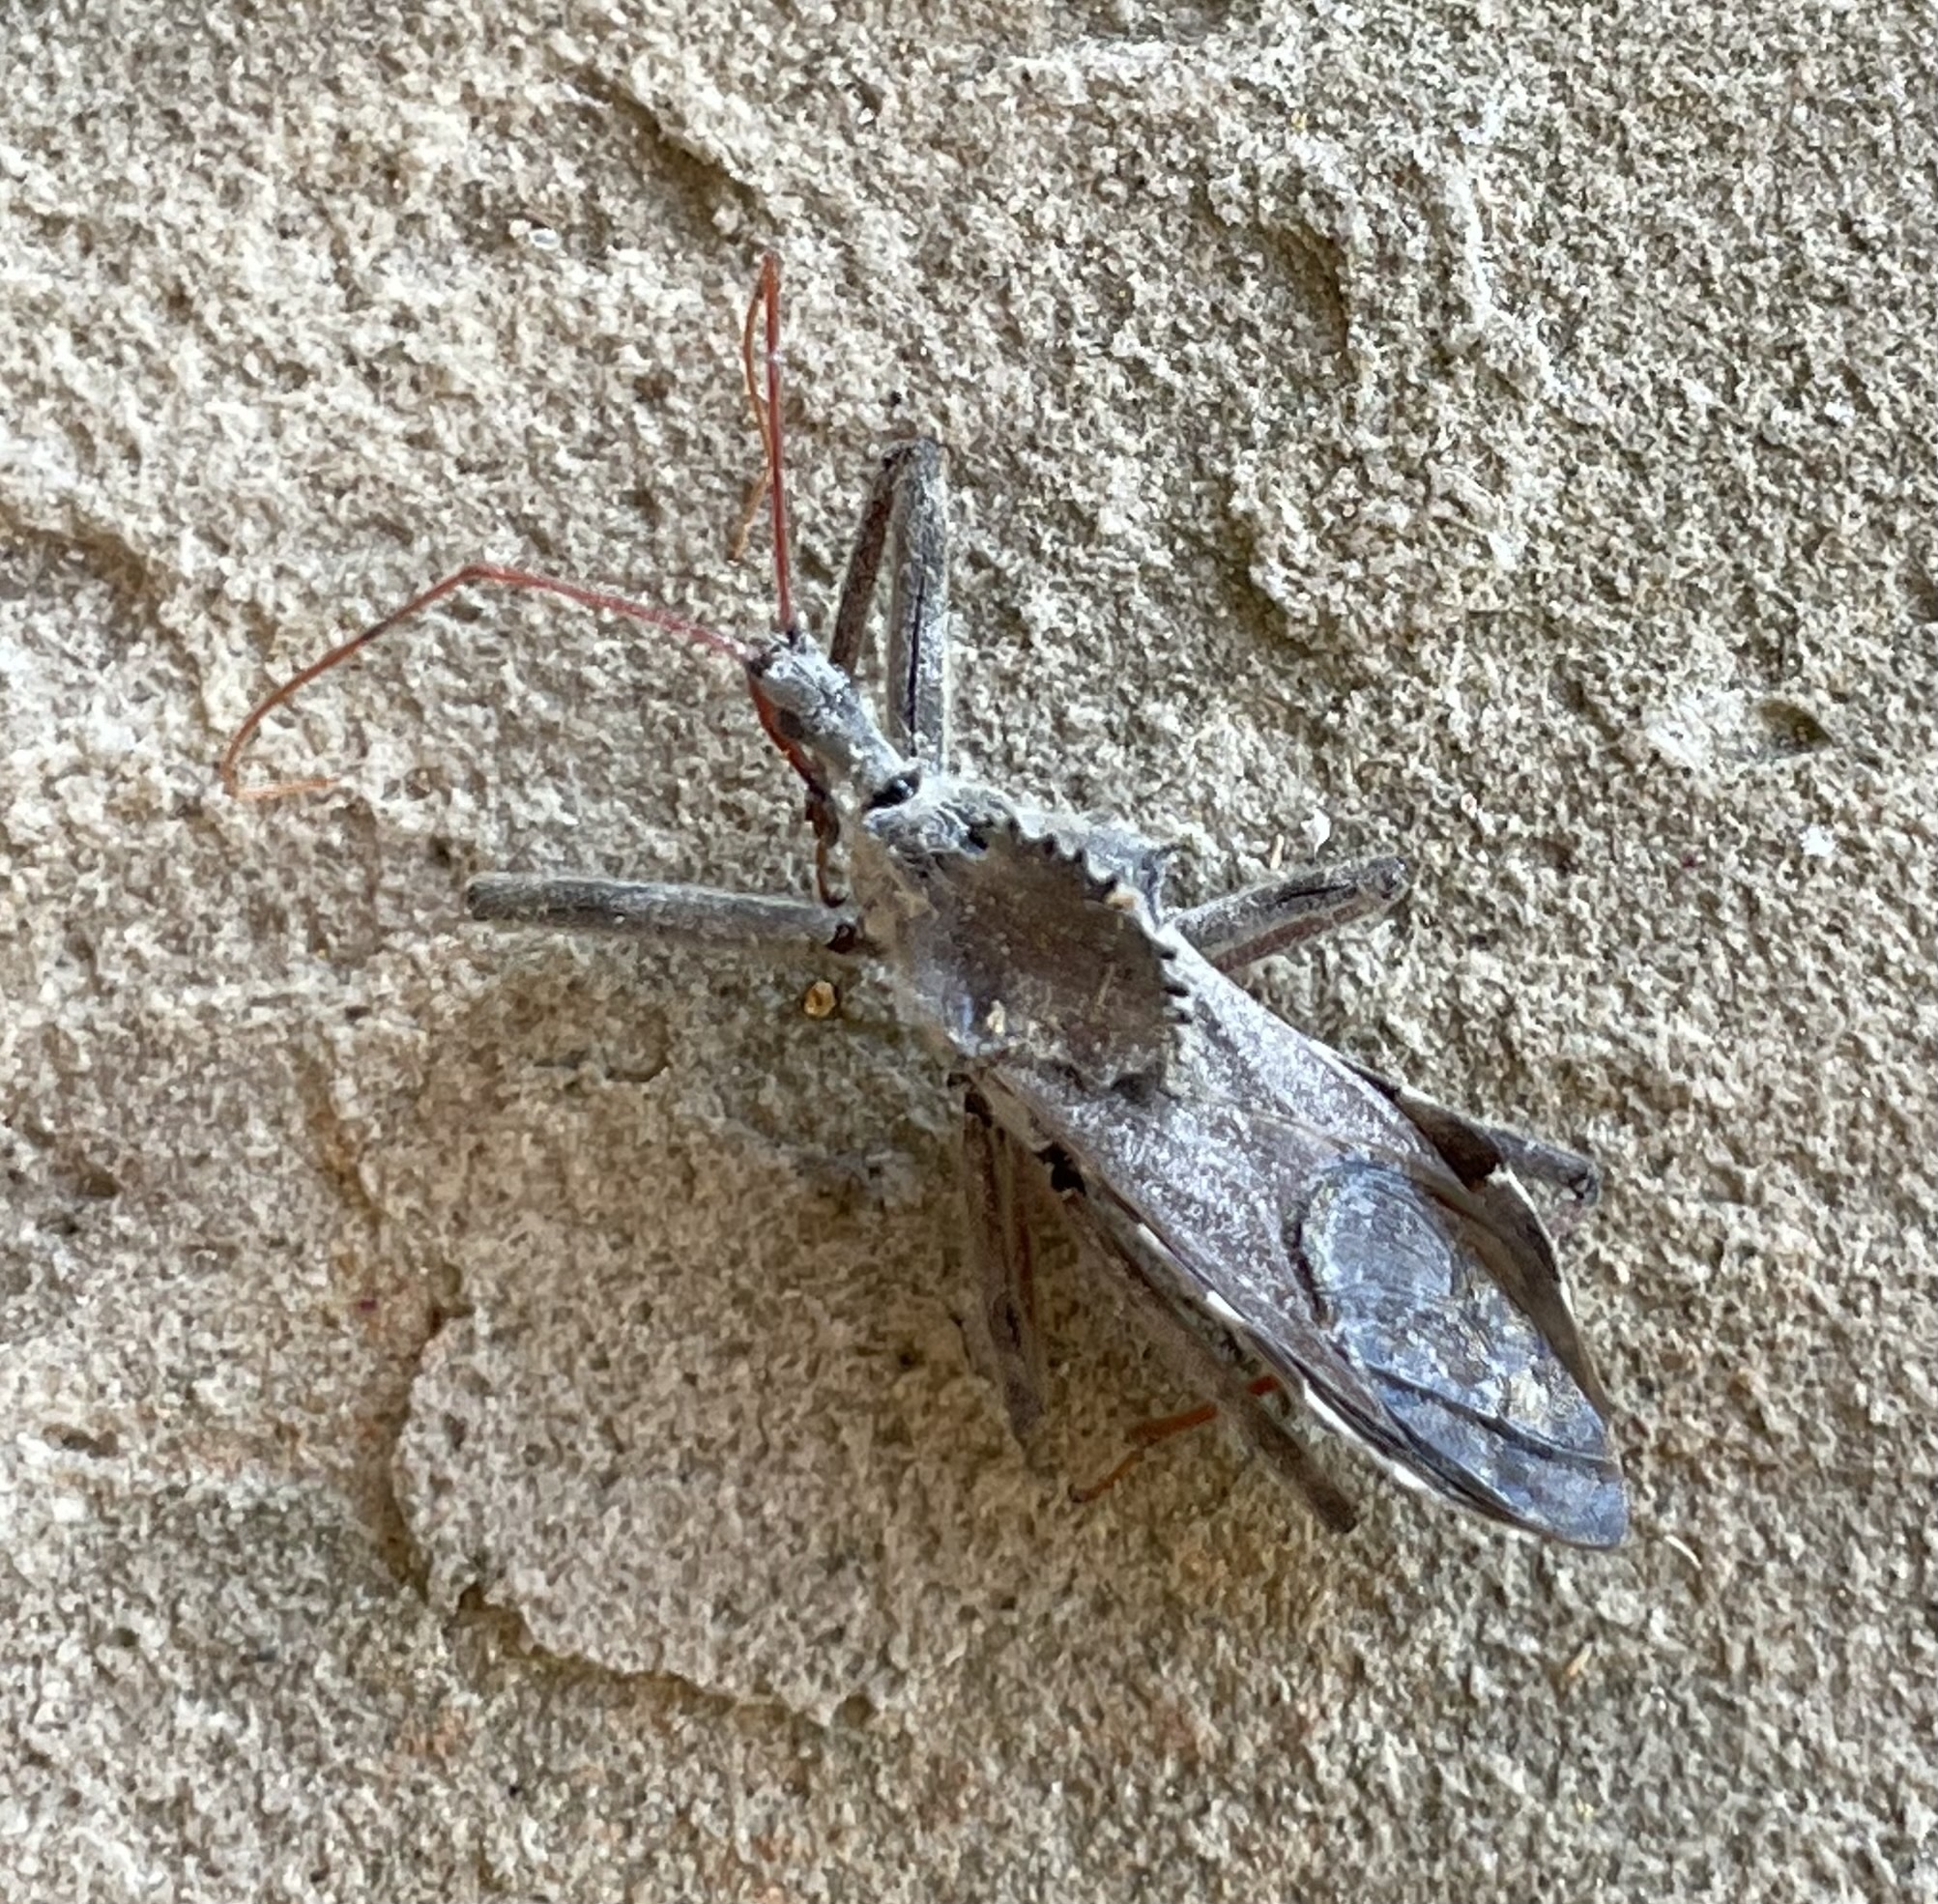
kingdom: Animalia
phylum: Arthropoda
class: Insecta
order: Hemiptera
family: Reduviidae
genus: Arilus
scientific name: Arilus cristatus
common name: North american wheel bug
